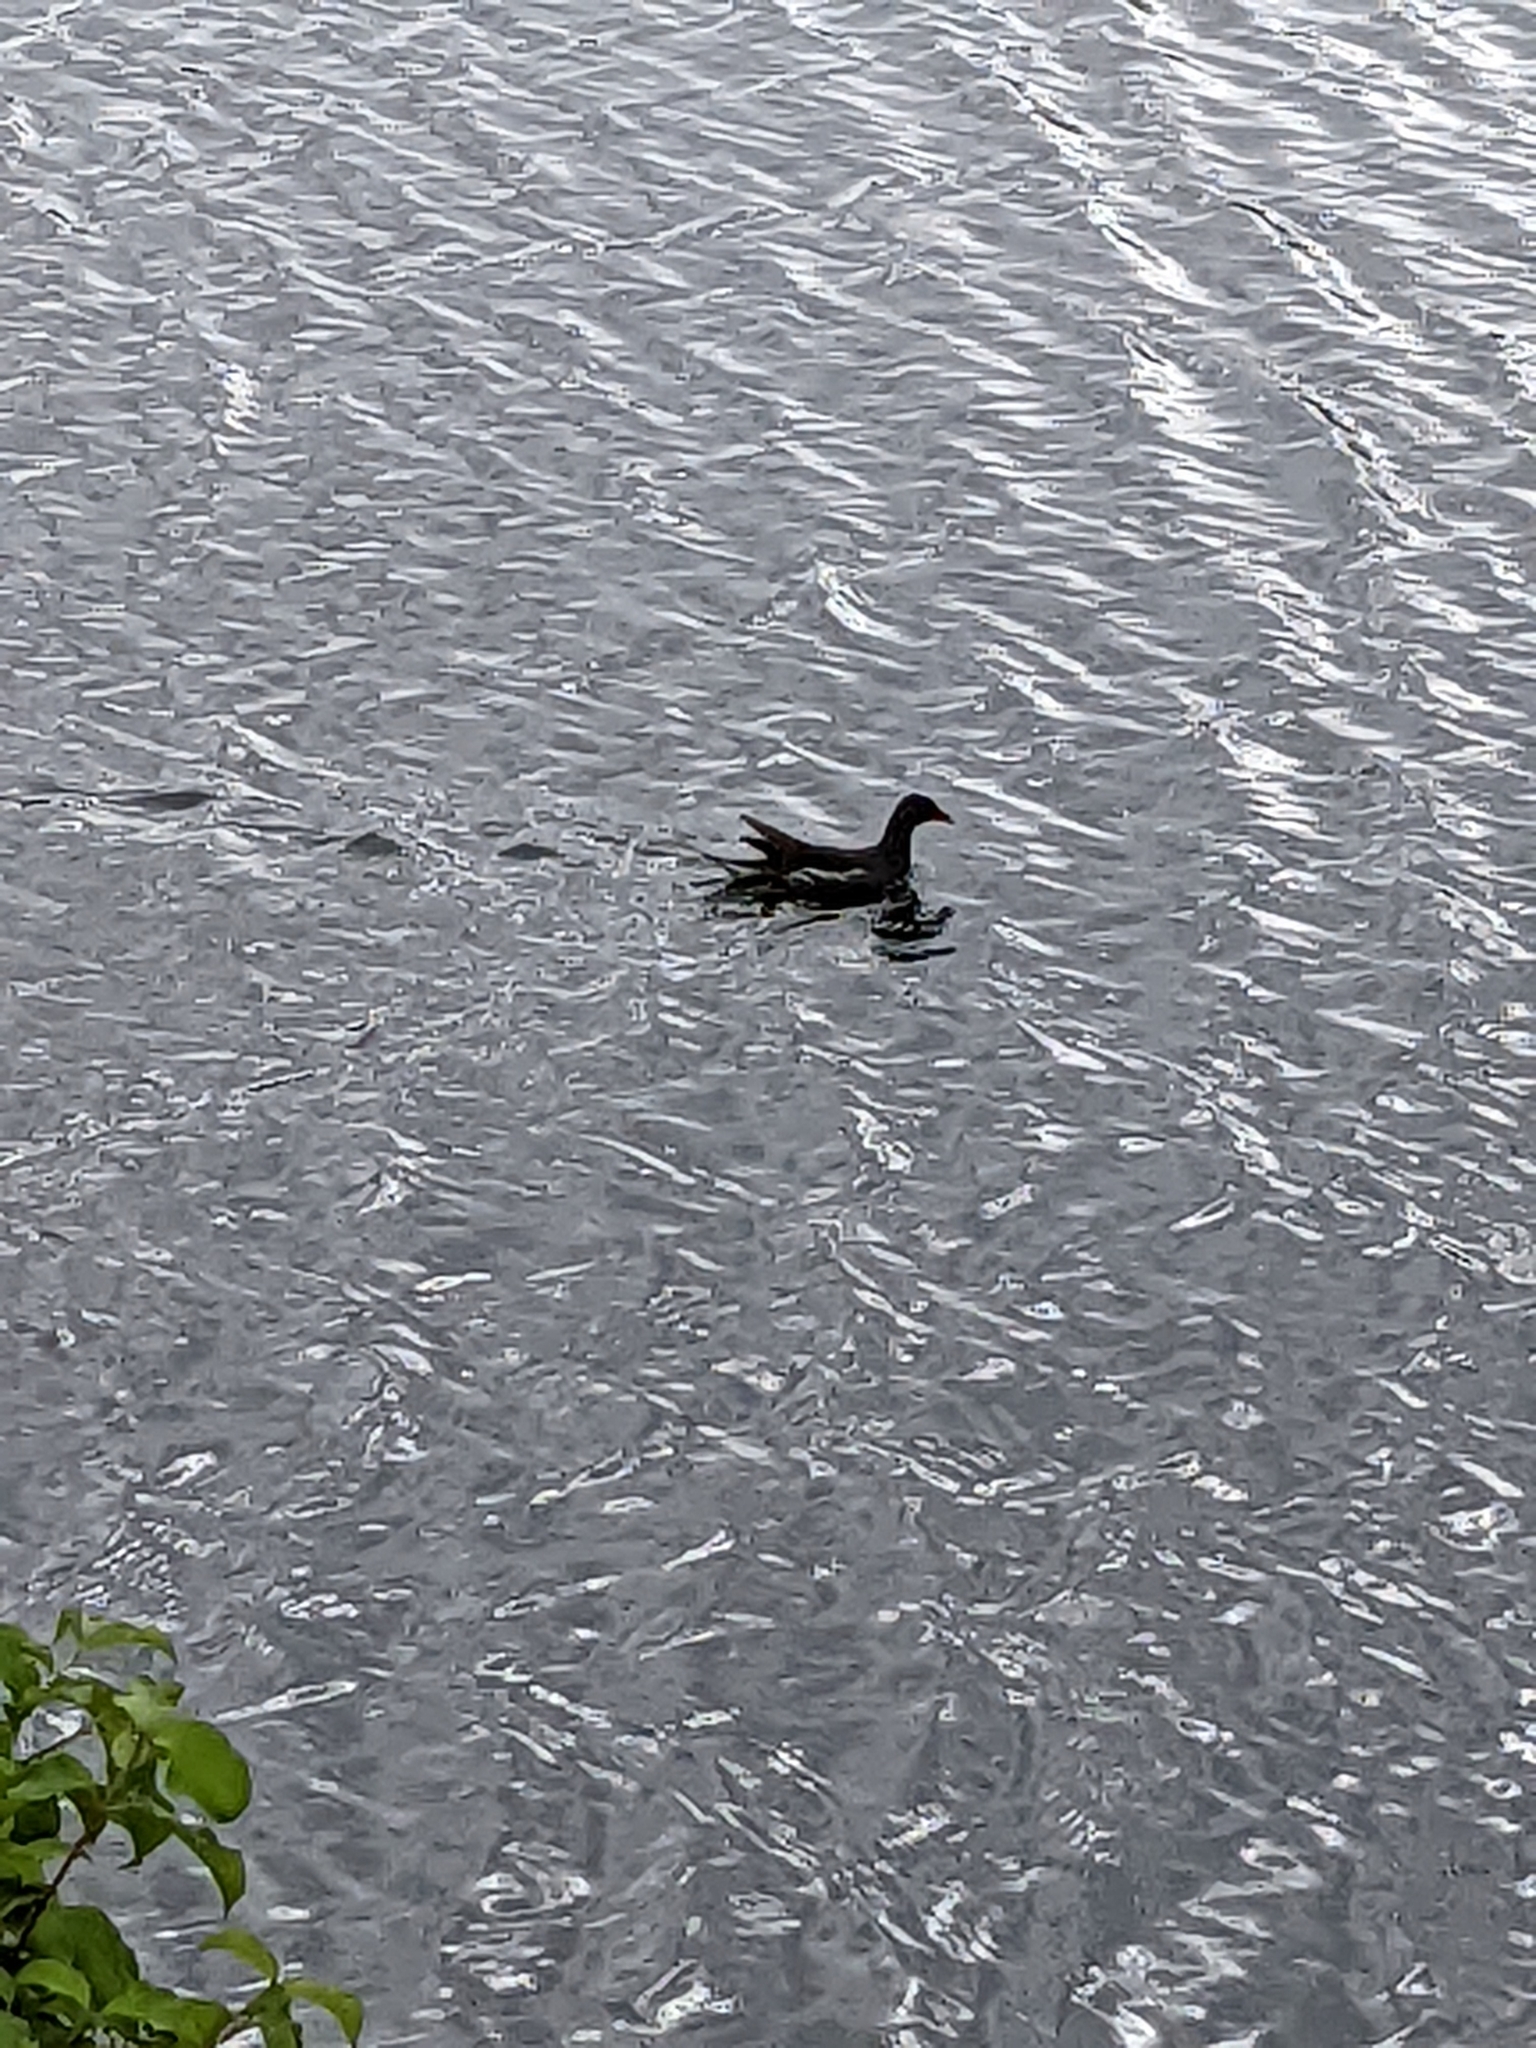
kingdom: Animalia
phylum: Chordata
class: Aves
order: Gruiformes
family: Rallidae
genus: Gallinula
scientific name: Gallinula chloropus
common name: Common moorhen
